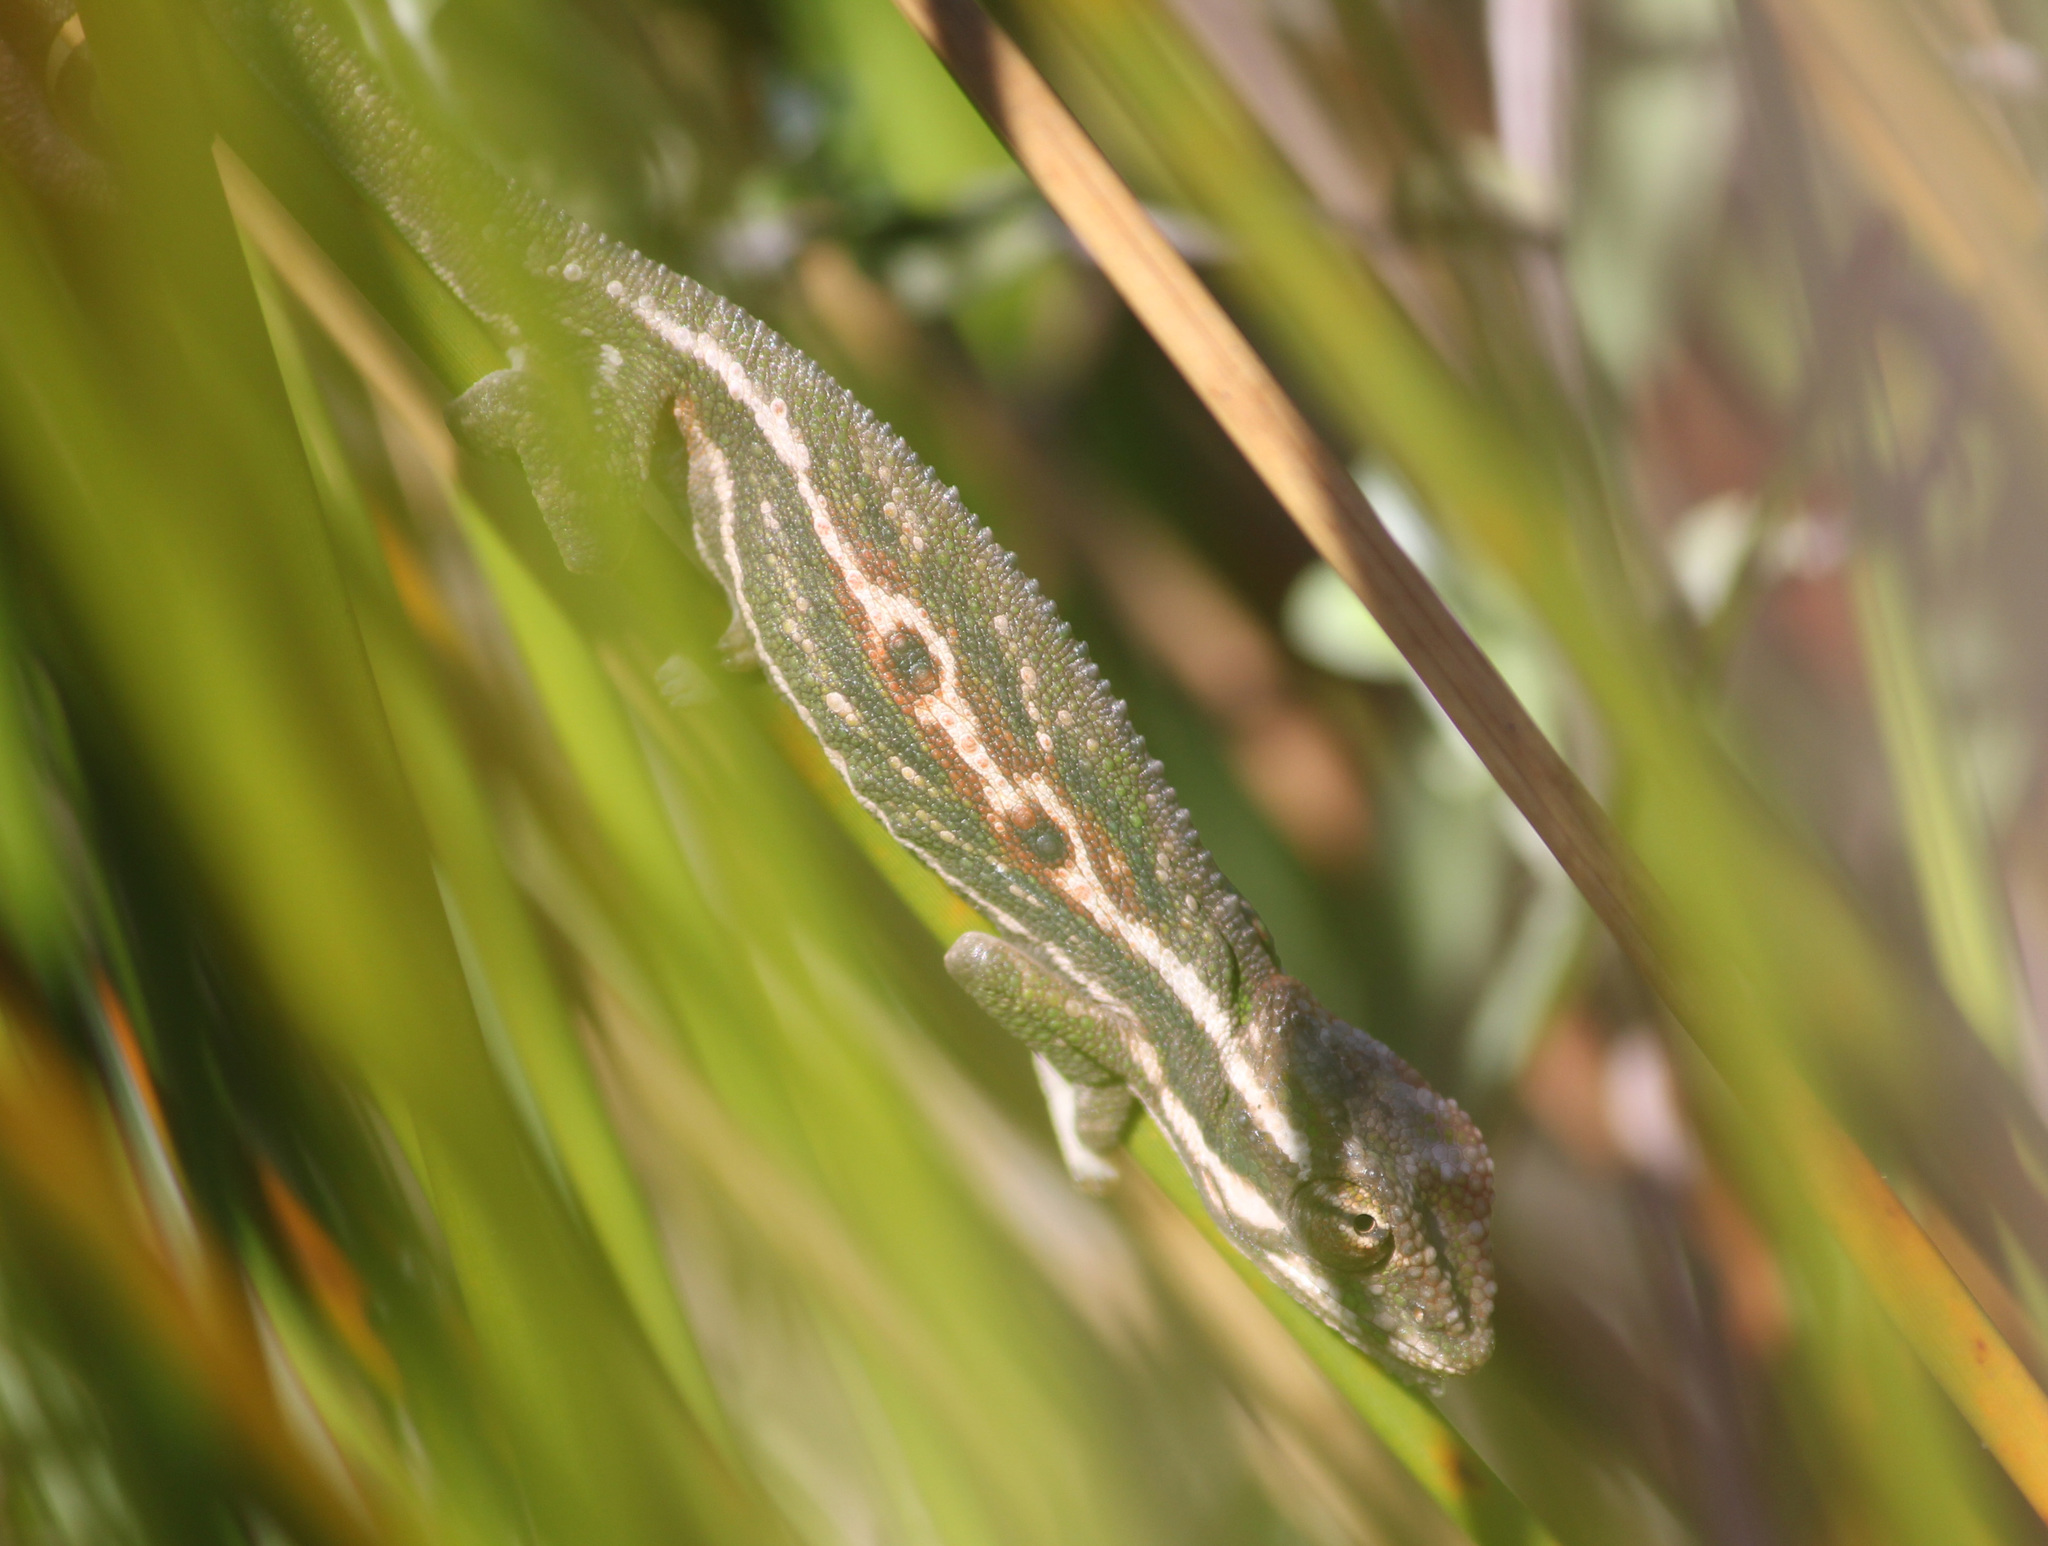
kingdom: Animalia
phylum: Chordata
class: Squamata
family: Chamaeleonidae
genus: Bradypodion
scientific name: Bradypodion pumilum
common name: Cape dwarf chameleon
